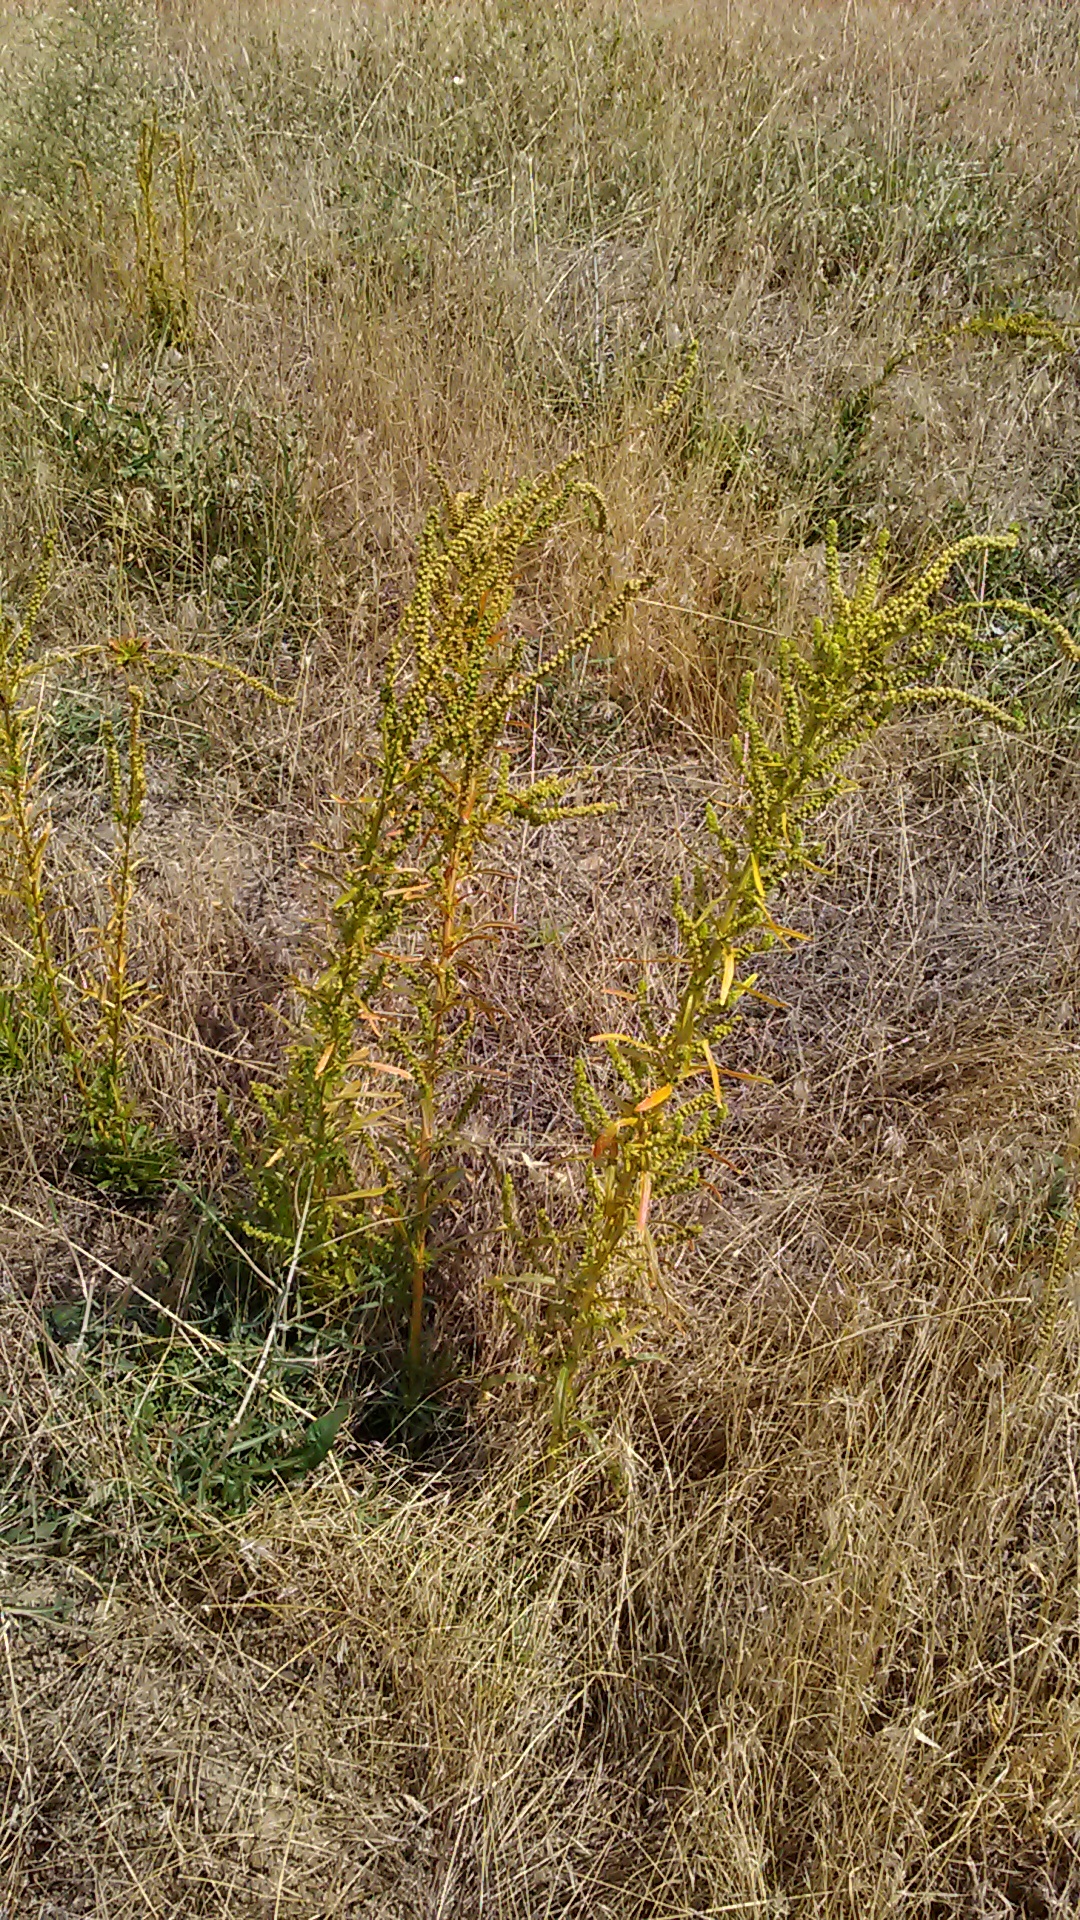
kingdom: Plantae
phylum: Tracheophyta
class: Magnoliopsida
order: Brassicales
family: Resedaceae
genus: Reseda
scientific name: Reseda luteola
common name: Weld
